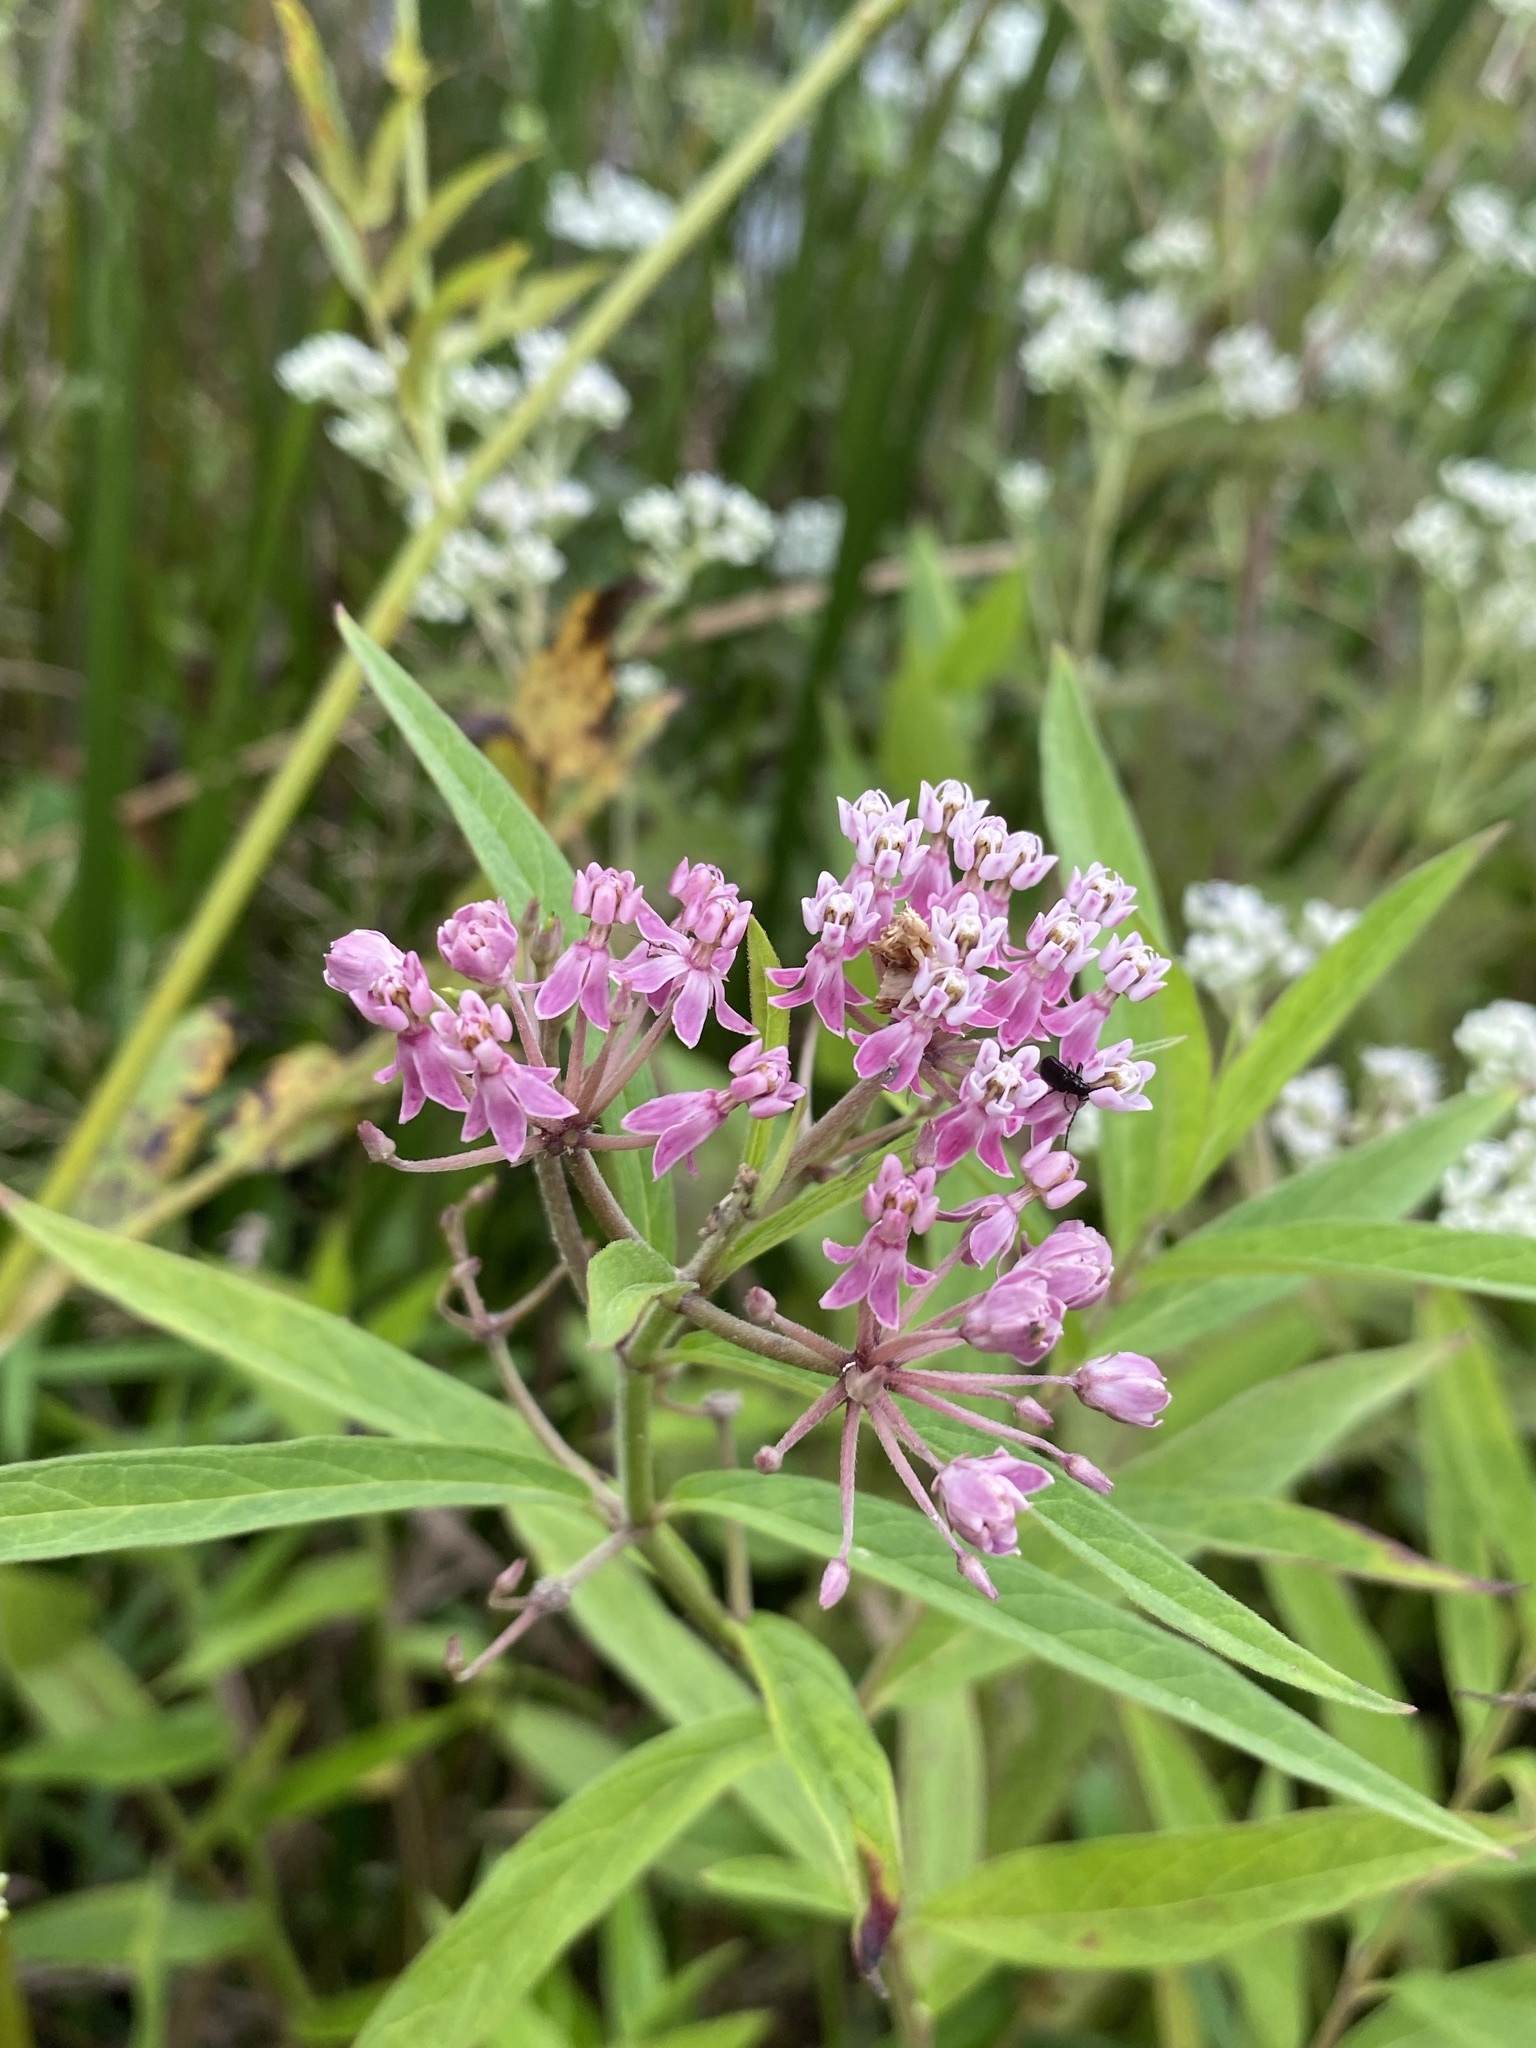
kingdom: Plantae
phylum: Tracheophyta
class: Magnoliopsida
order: Gentianales
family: Apocynaceae
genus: Asclepias
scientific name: Asclepias incarnata
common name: Swamp milkweed
